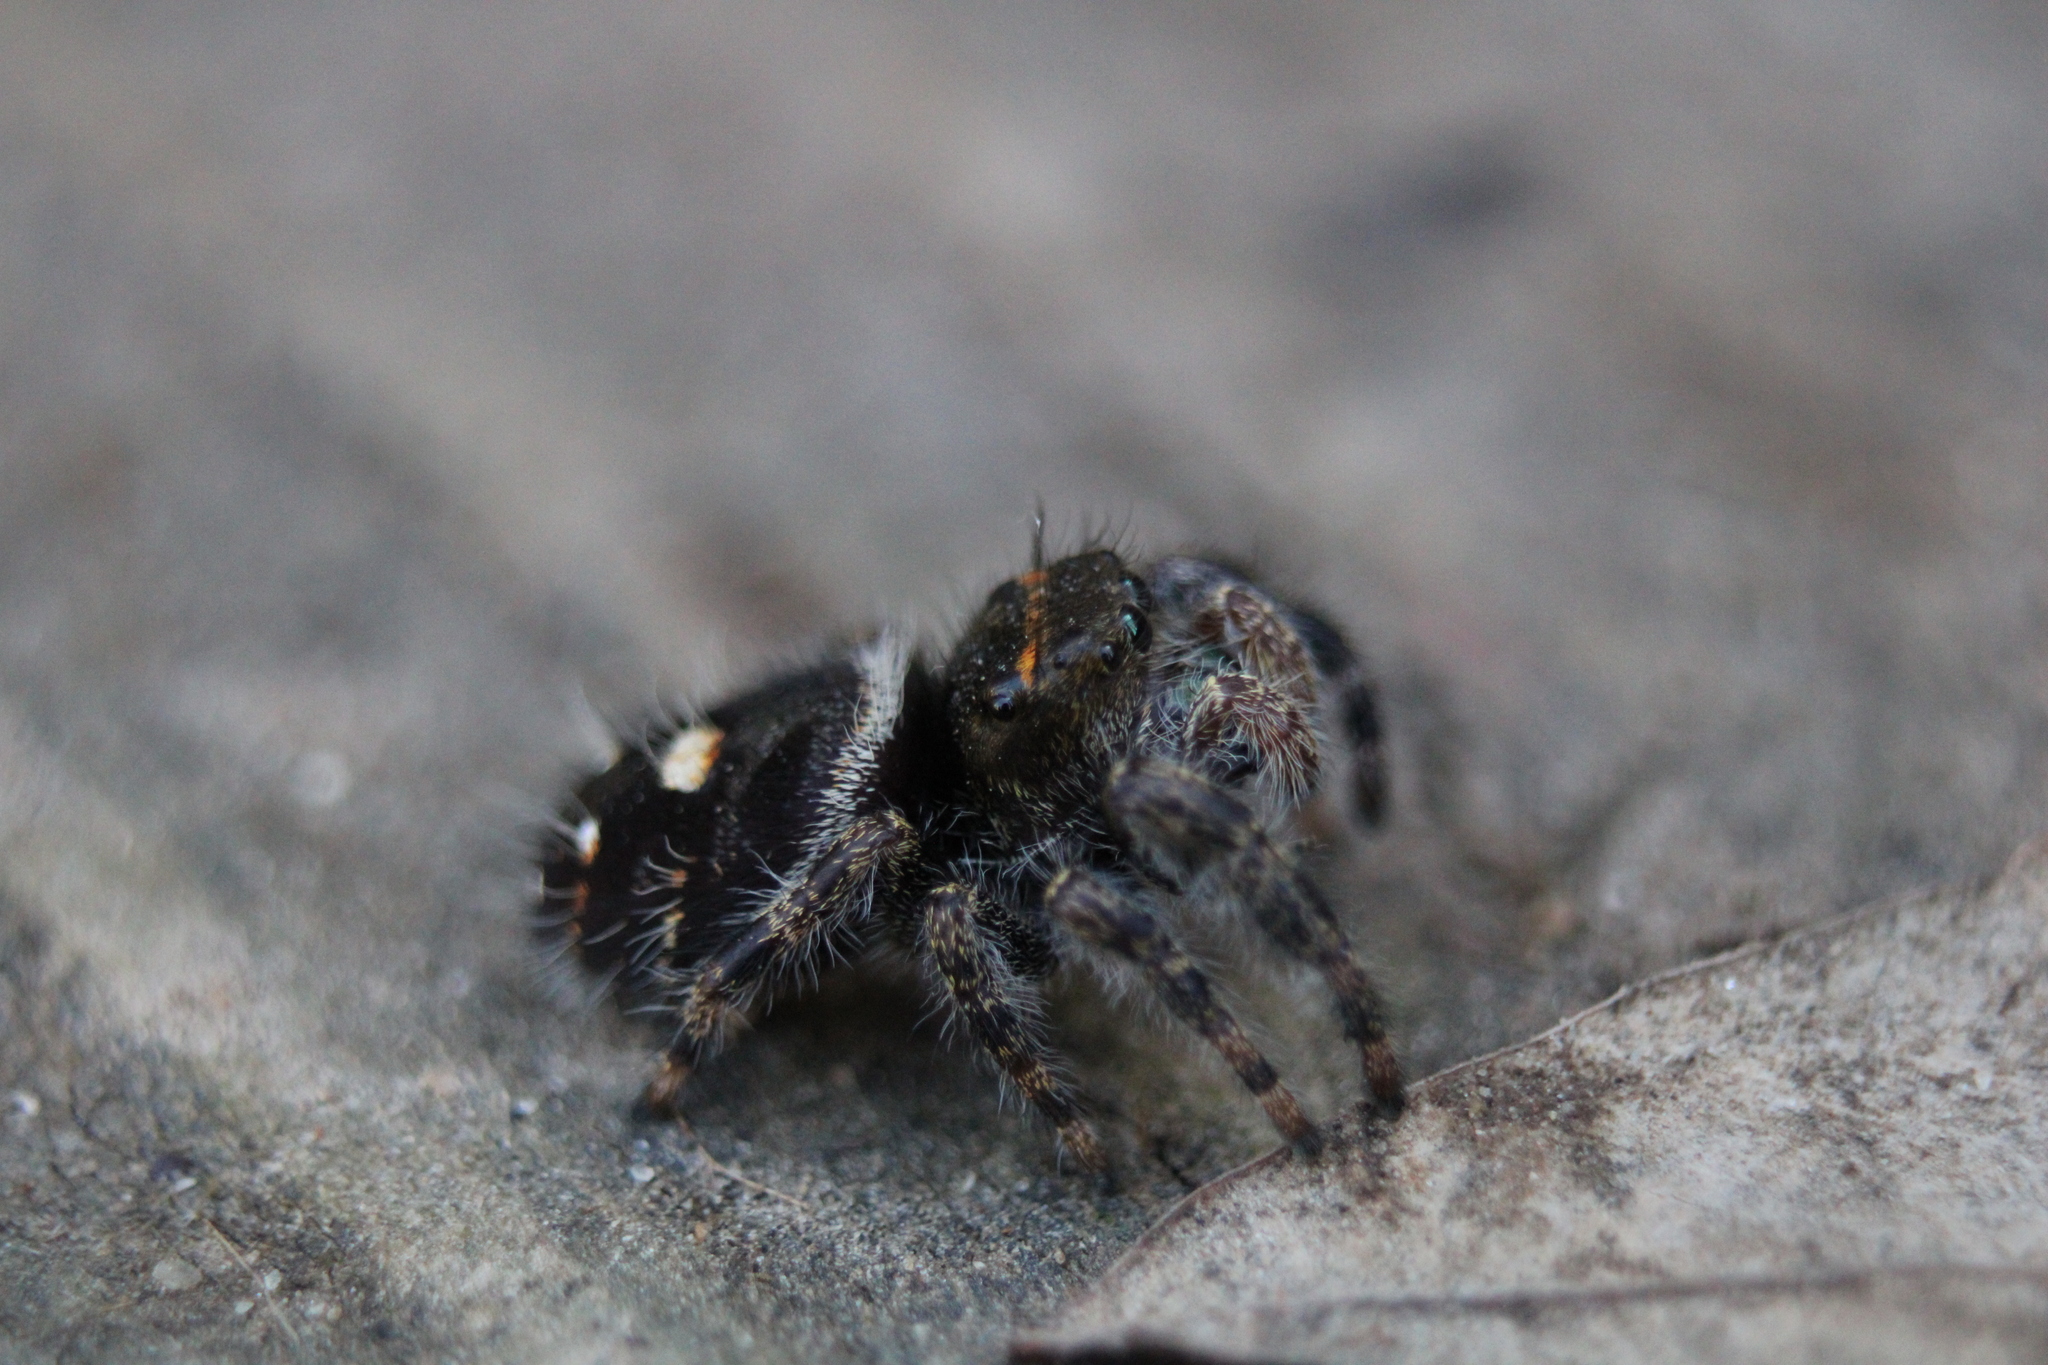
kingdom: Animalia
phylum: Arthropoda
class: Arachnida
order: Araneae
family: Salticidae
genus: Phidippus
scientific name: Phidippus audax
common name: Bold jumper
